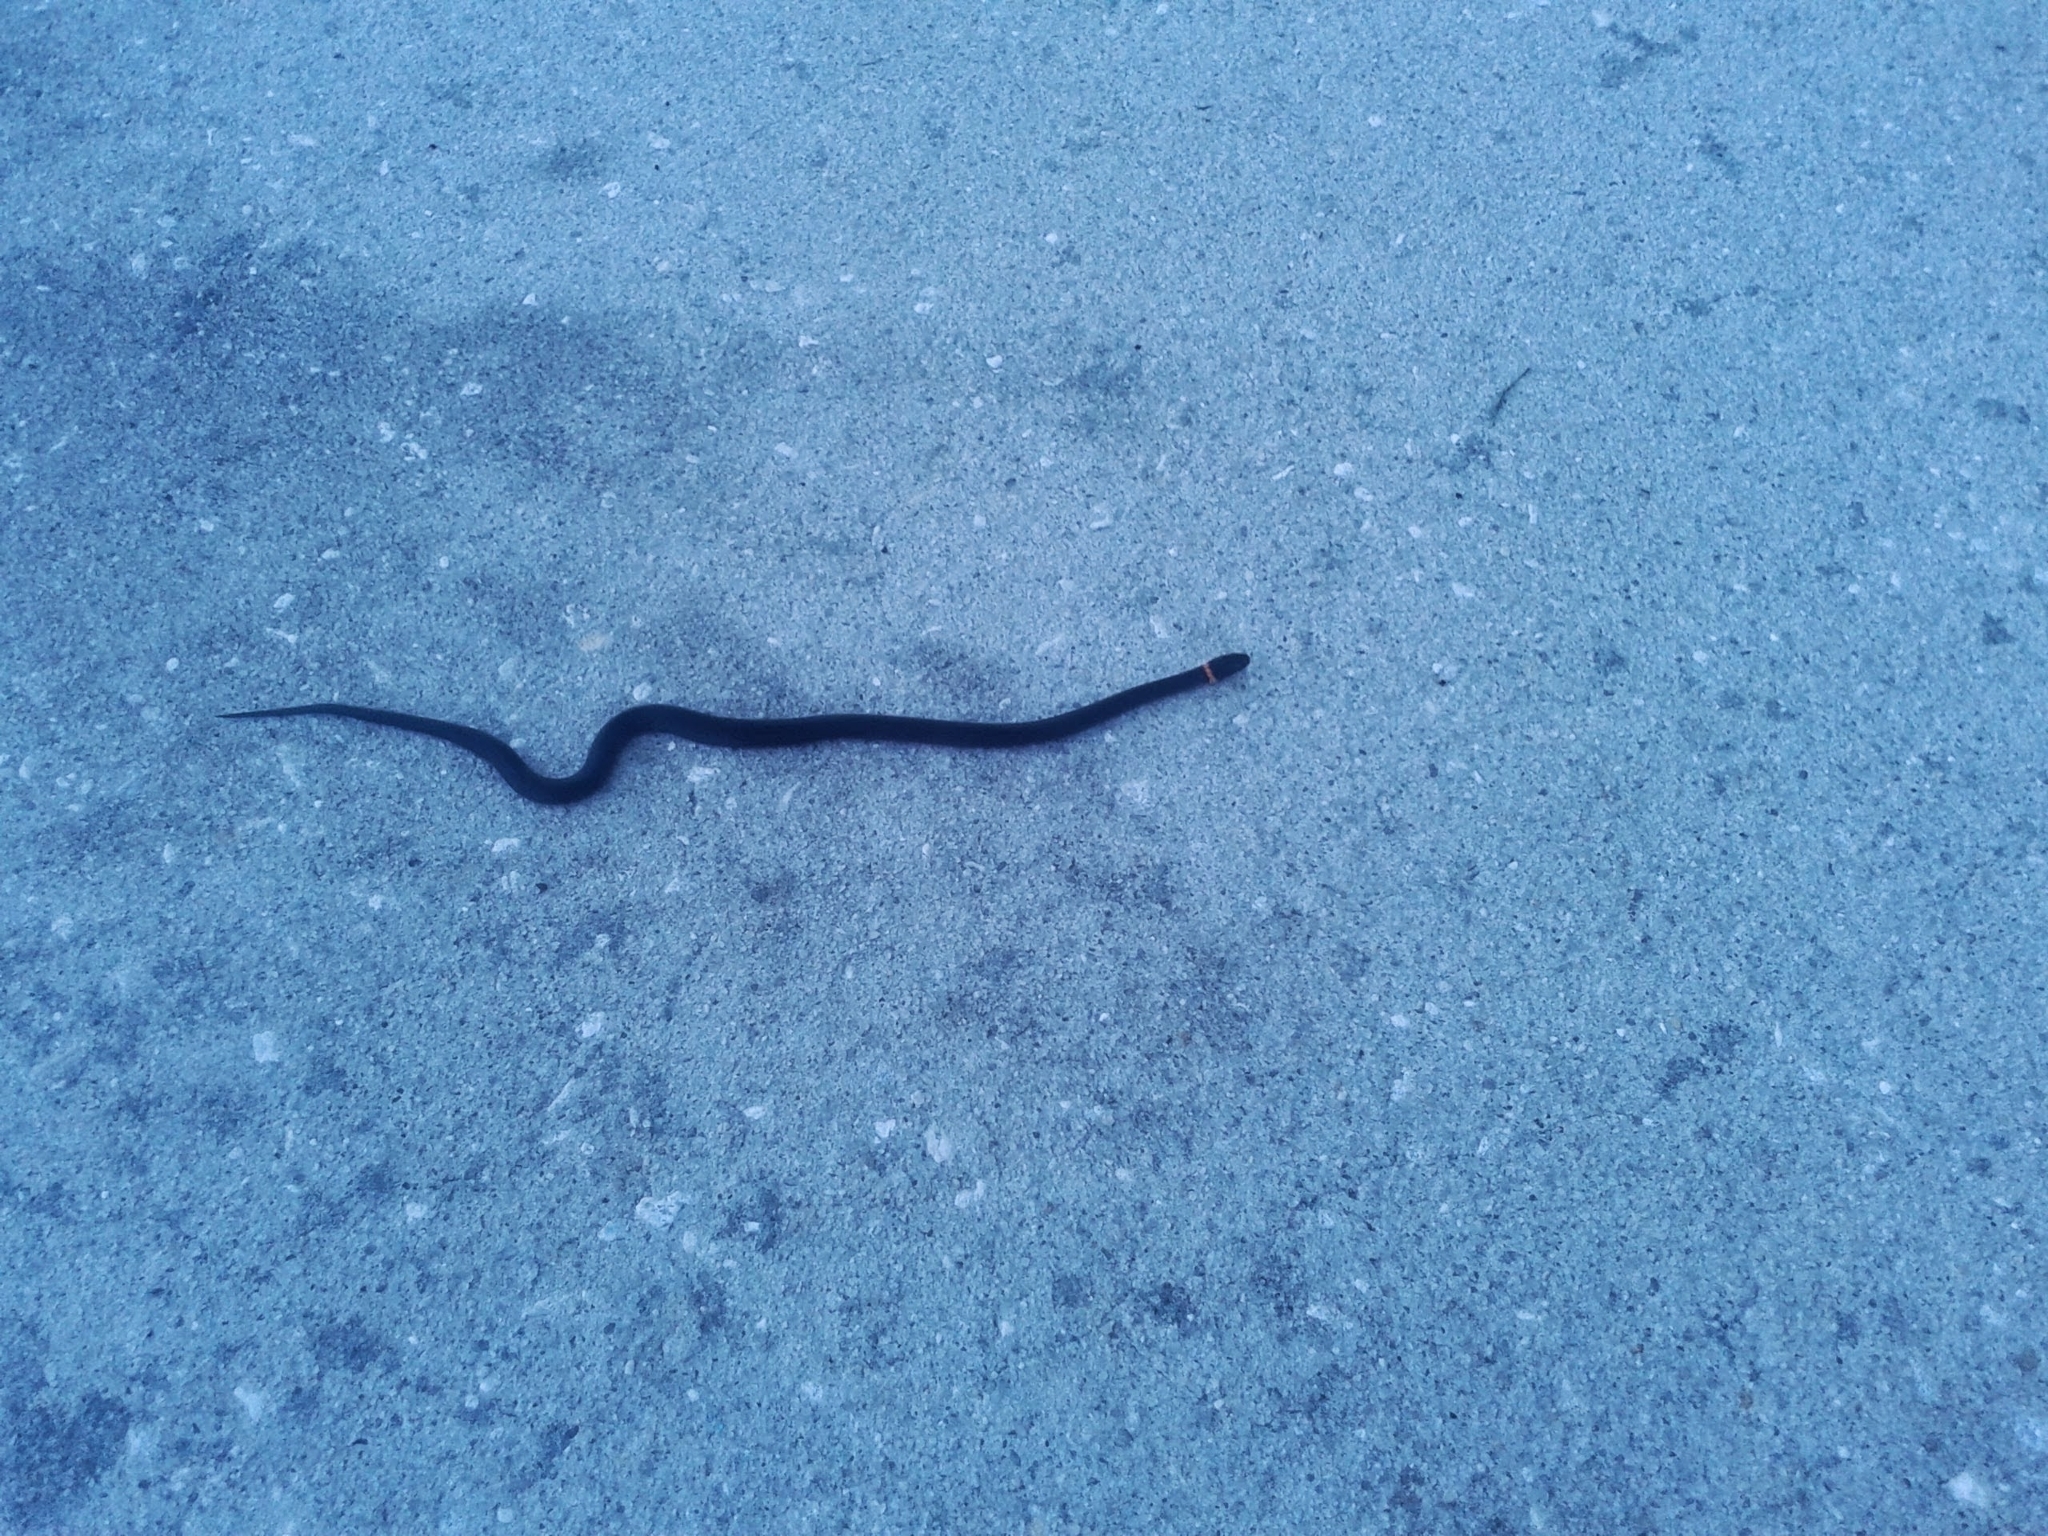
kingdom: Animalia
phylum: Chordata
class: Squamata
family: Colubridae
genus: Diadophis
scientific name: Diadophis punctatus
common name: Ringneck snake
